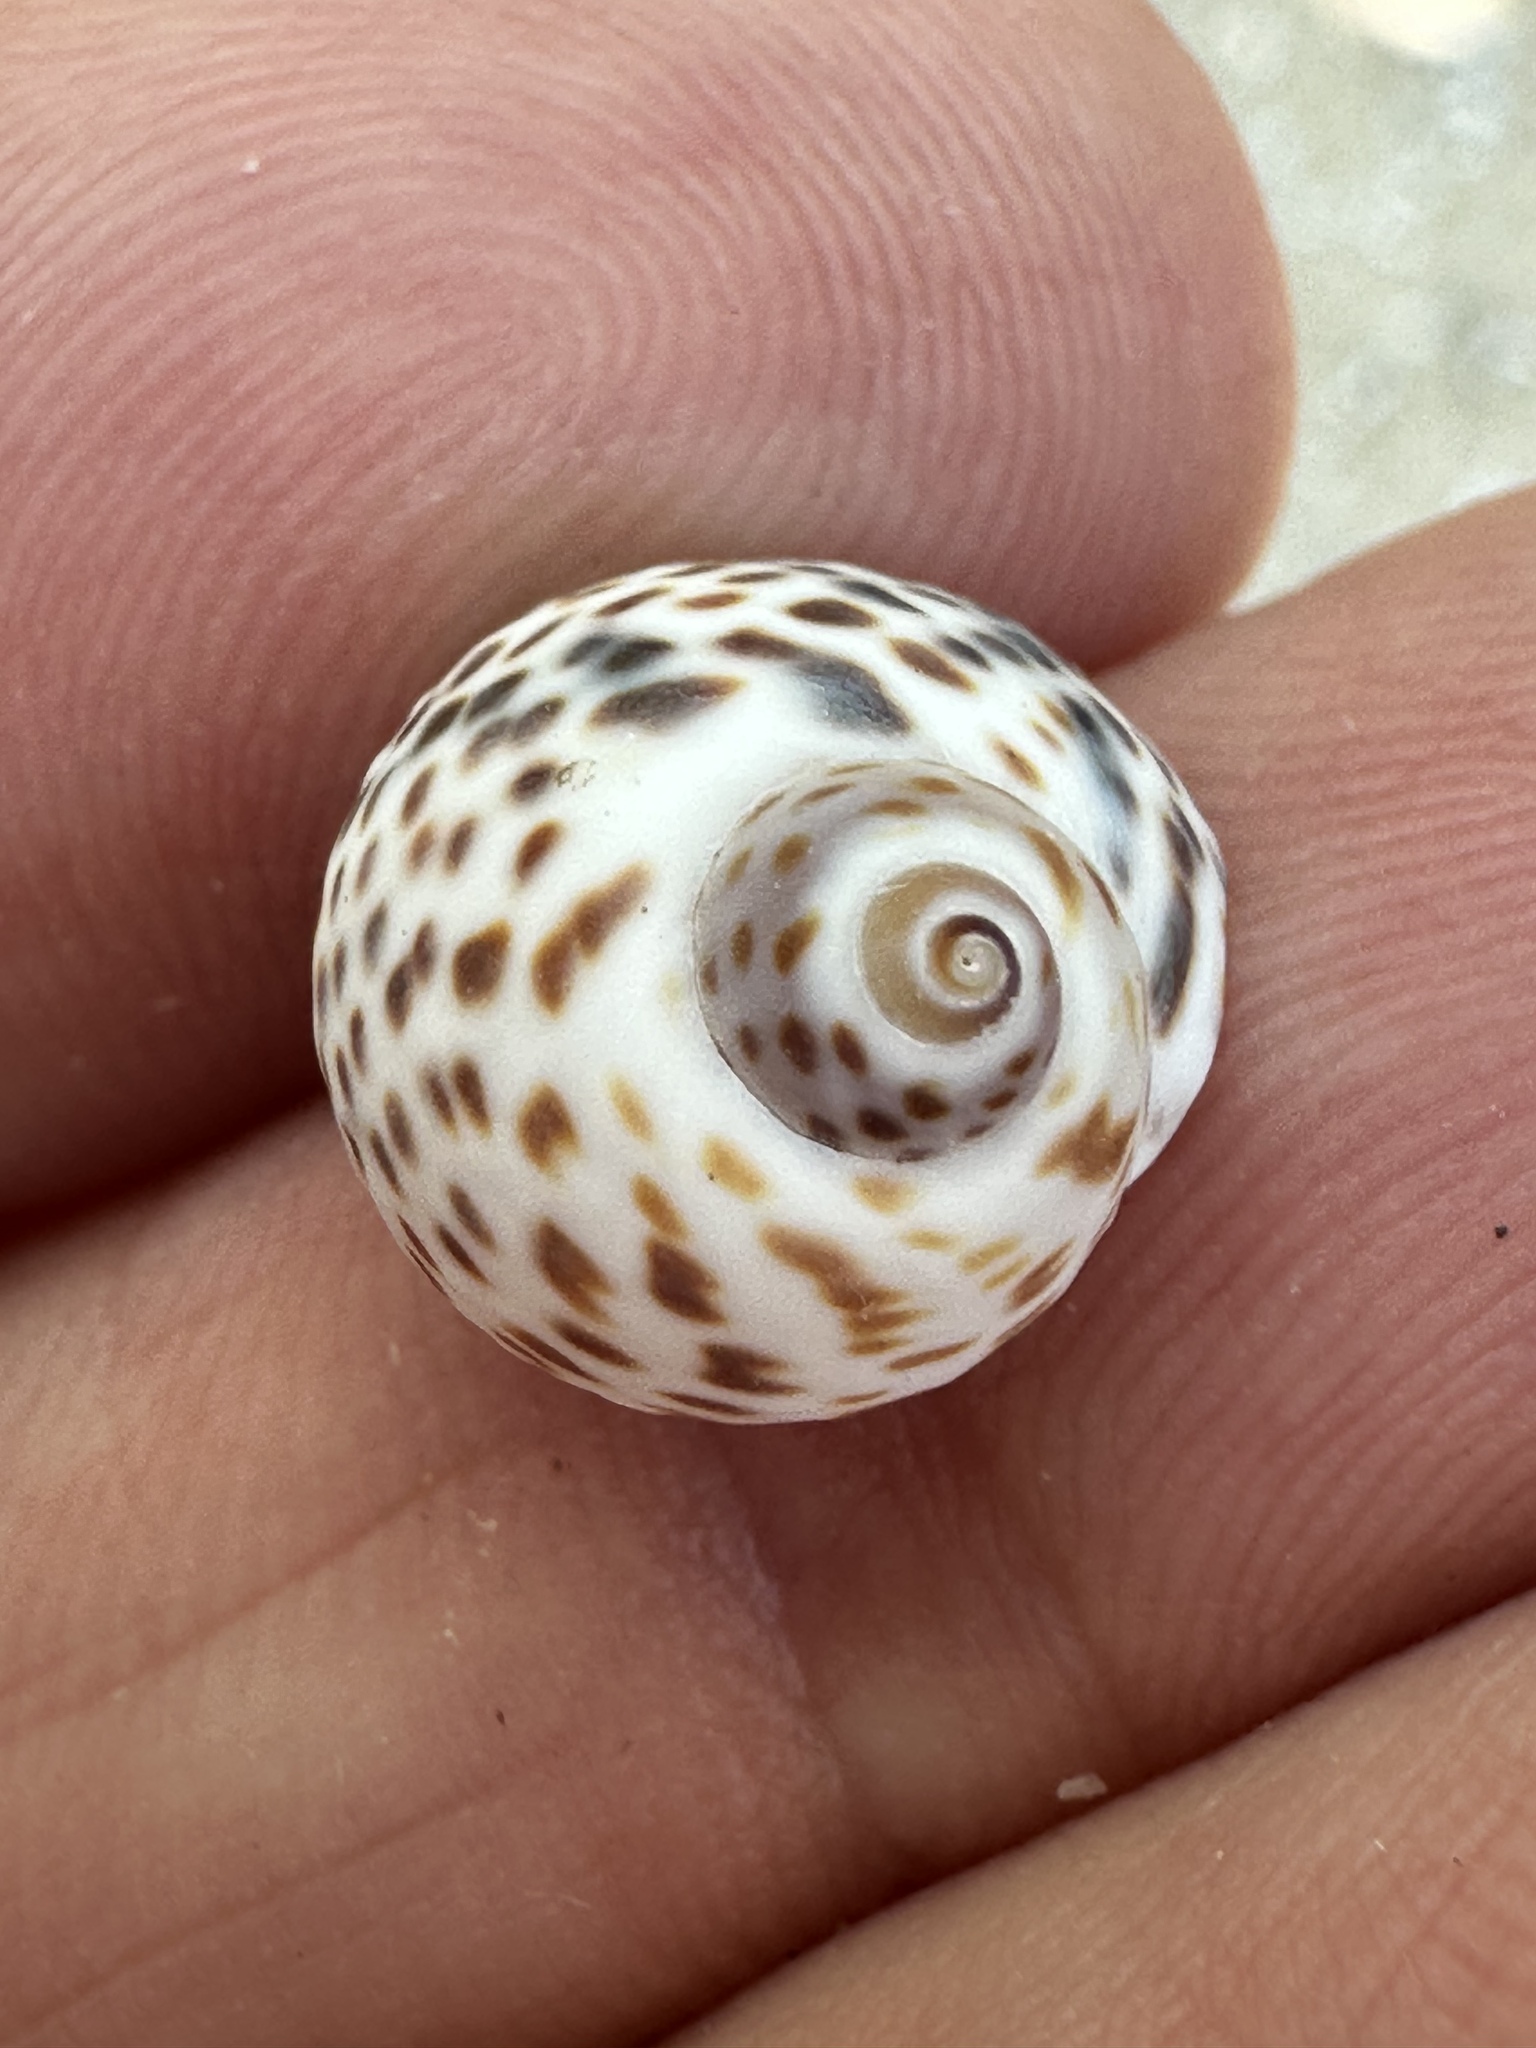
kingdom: Animalia
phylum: Mollusca
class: Gastropoda
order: Littorinimorpha
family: Naticidae
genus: Paratectonatica
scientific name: Paratectonatica tigrina
